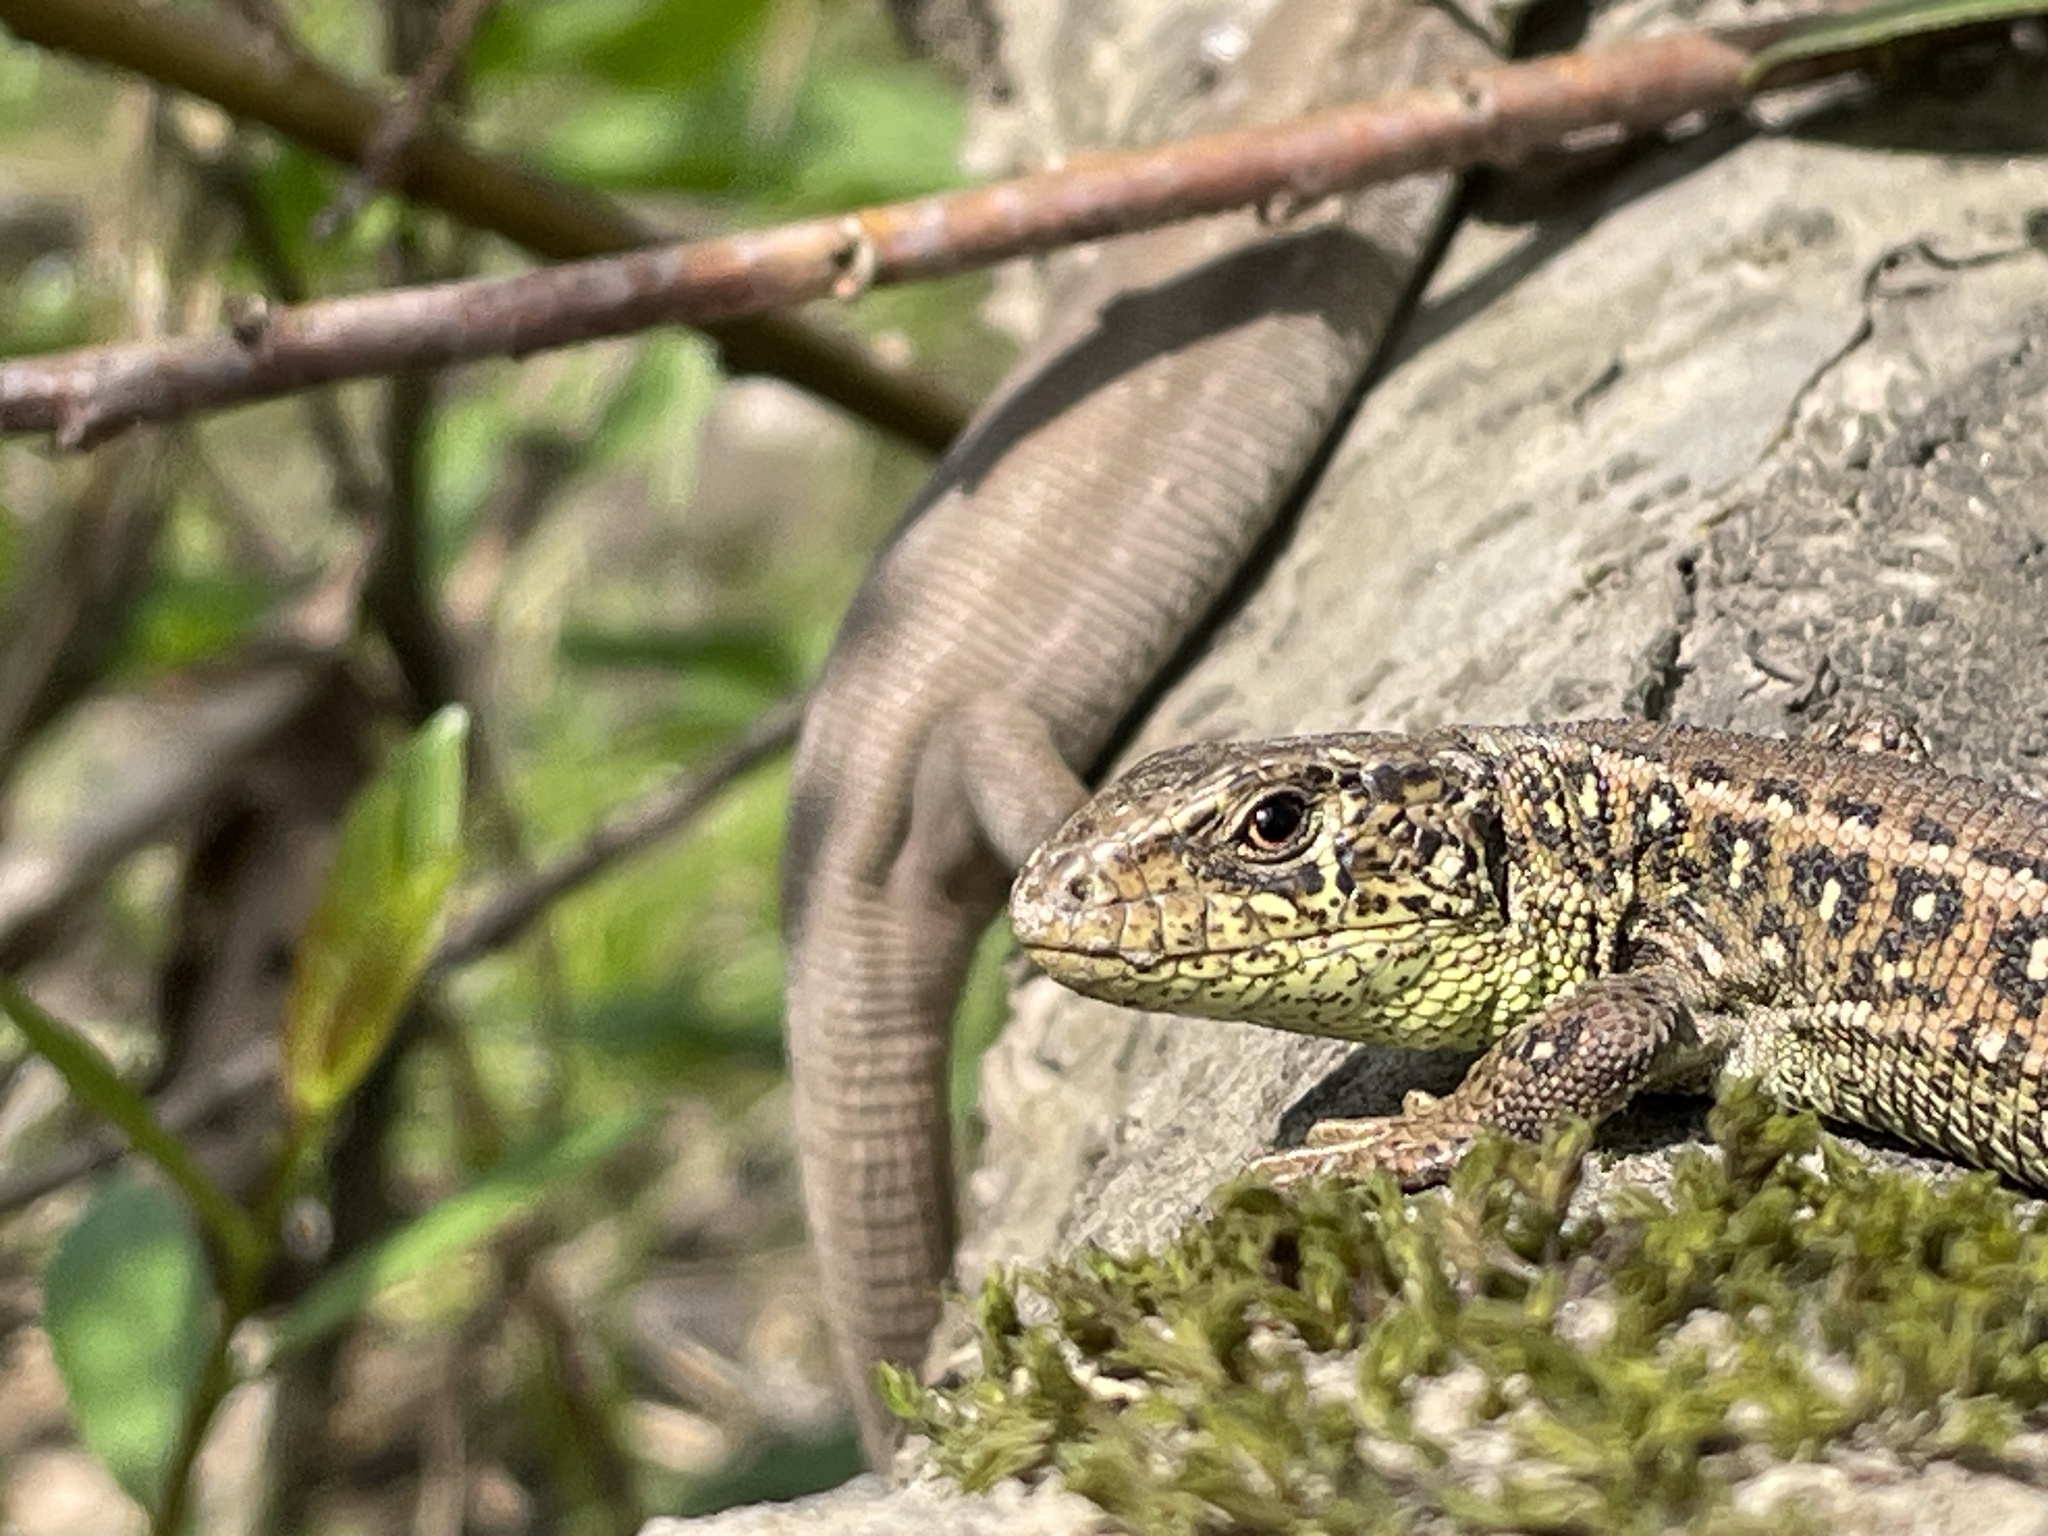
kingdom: Animalia
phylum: Chordata
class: Squamata
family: Lacertidae
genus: Lacerta
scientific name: Lacerta agilis
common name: Sand lizard
